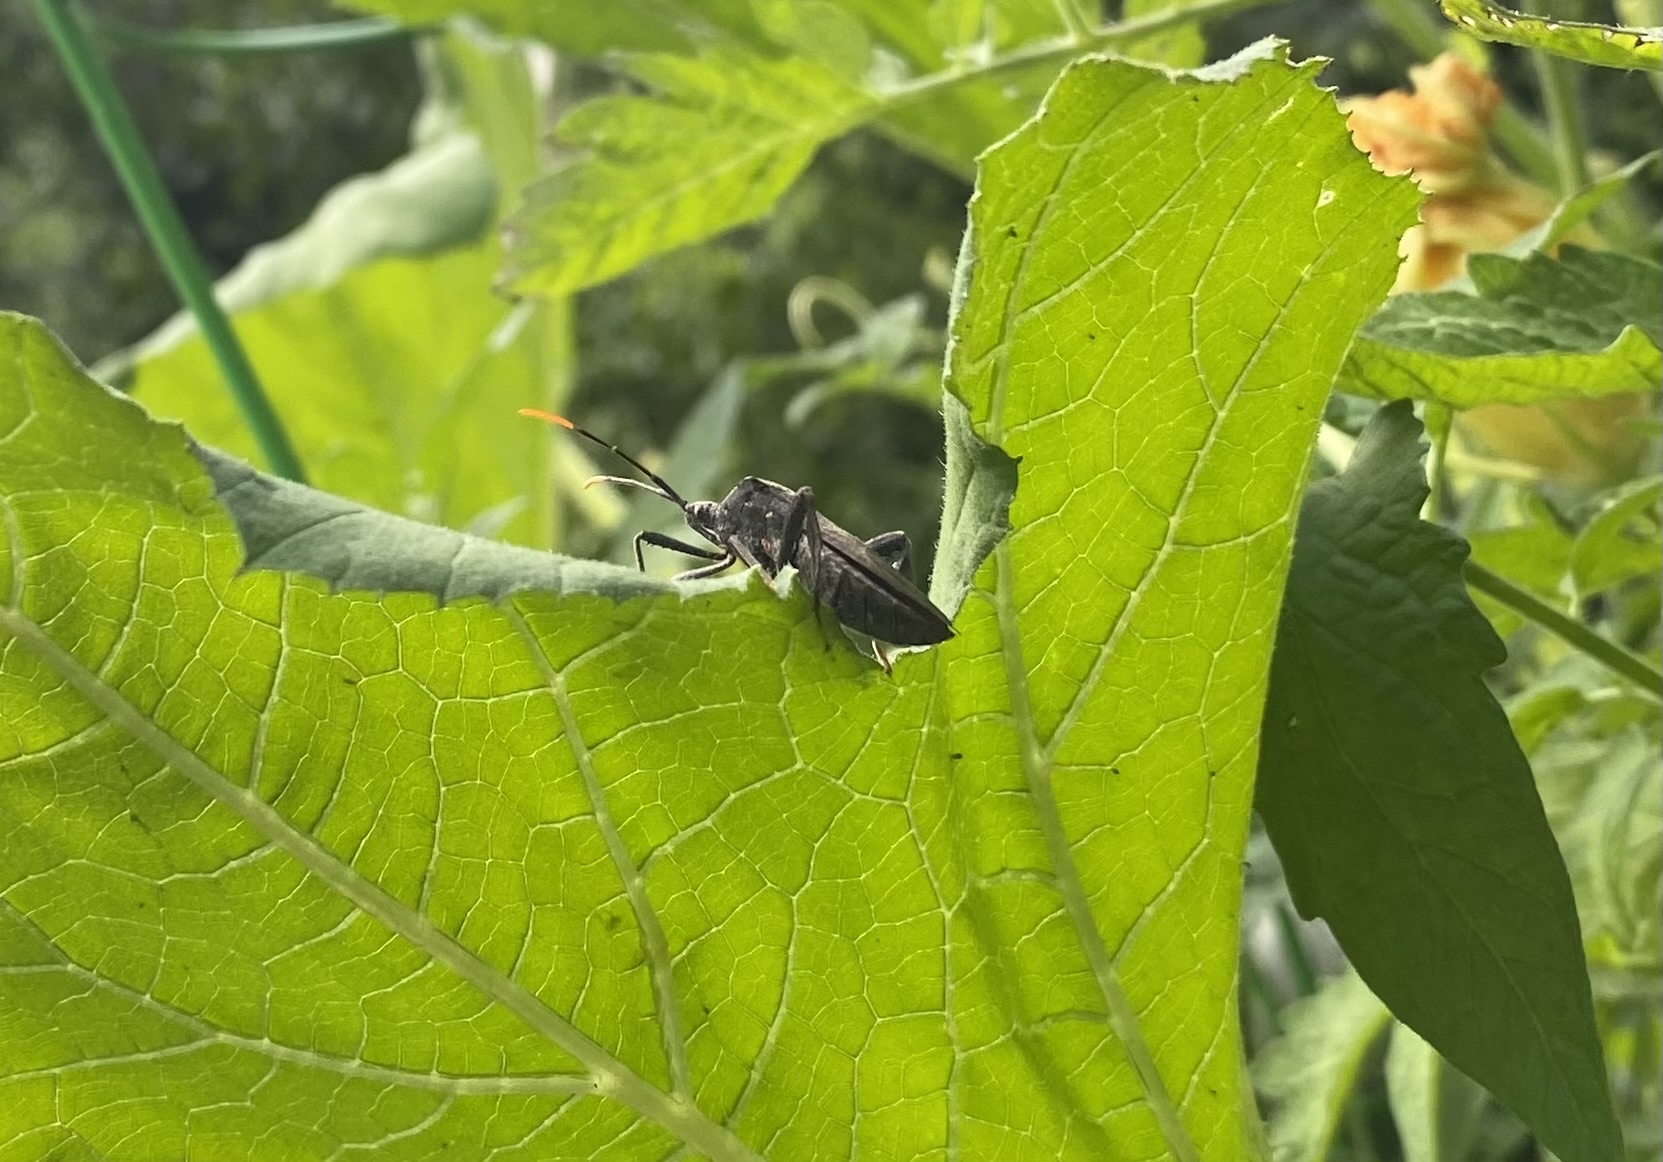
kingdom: Animalia
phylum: Arthropoda
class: Insecta
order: Hemiptera
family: Coreidae
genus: Acanthocephala
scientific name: Acanthocephala terminalis
